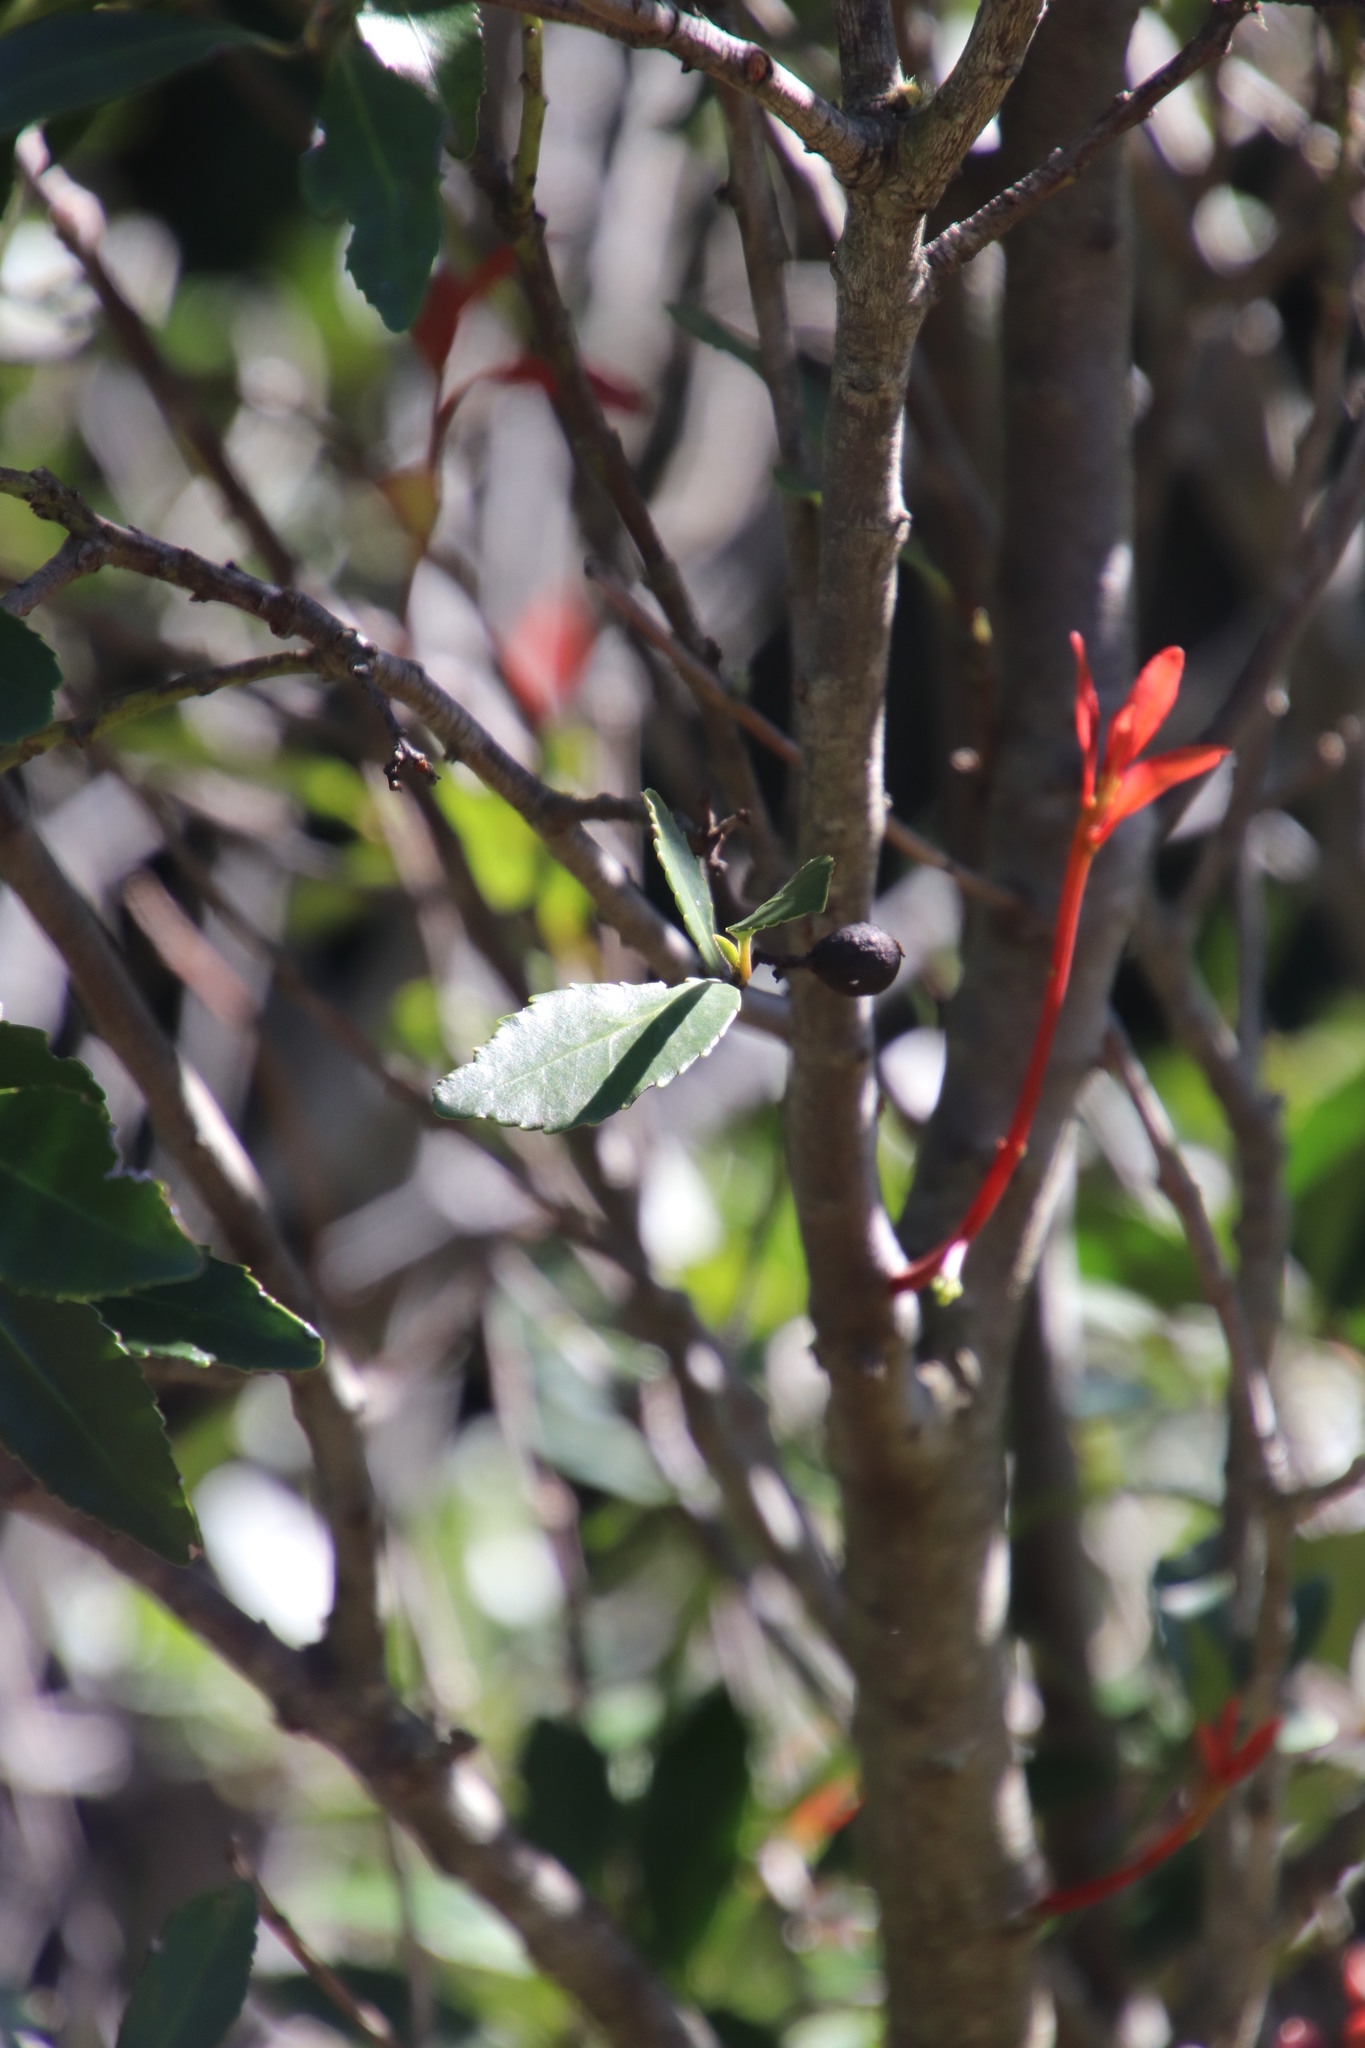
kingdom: Plantae
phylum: Tracheophyta
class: Magnoliopsida
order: Celastrales
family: Celastraceae
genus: Elaeodendron
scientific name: Elaeodendron schinoides
